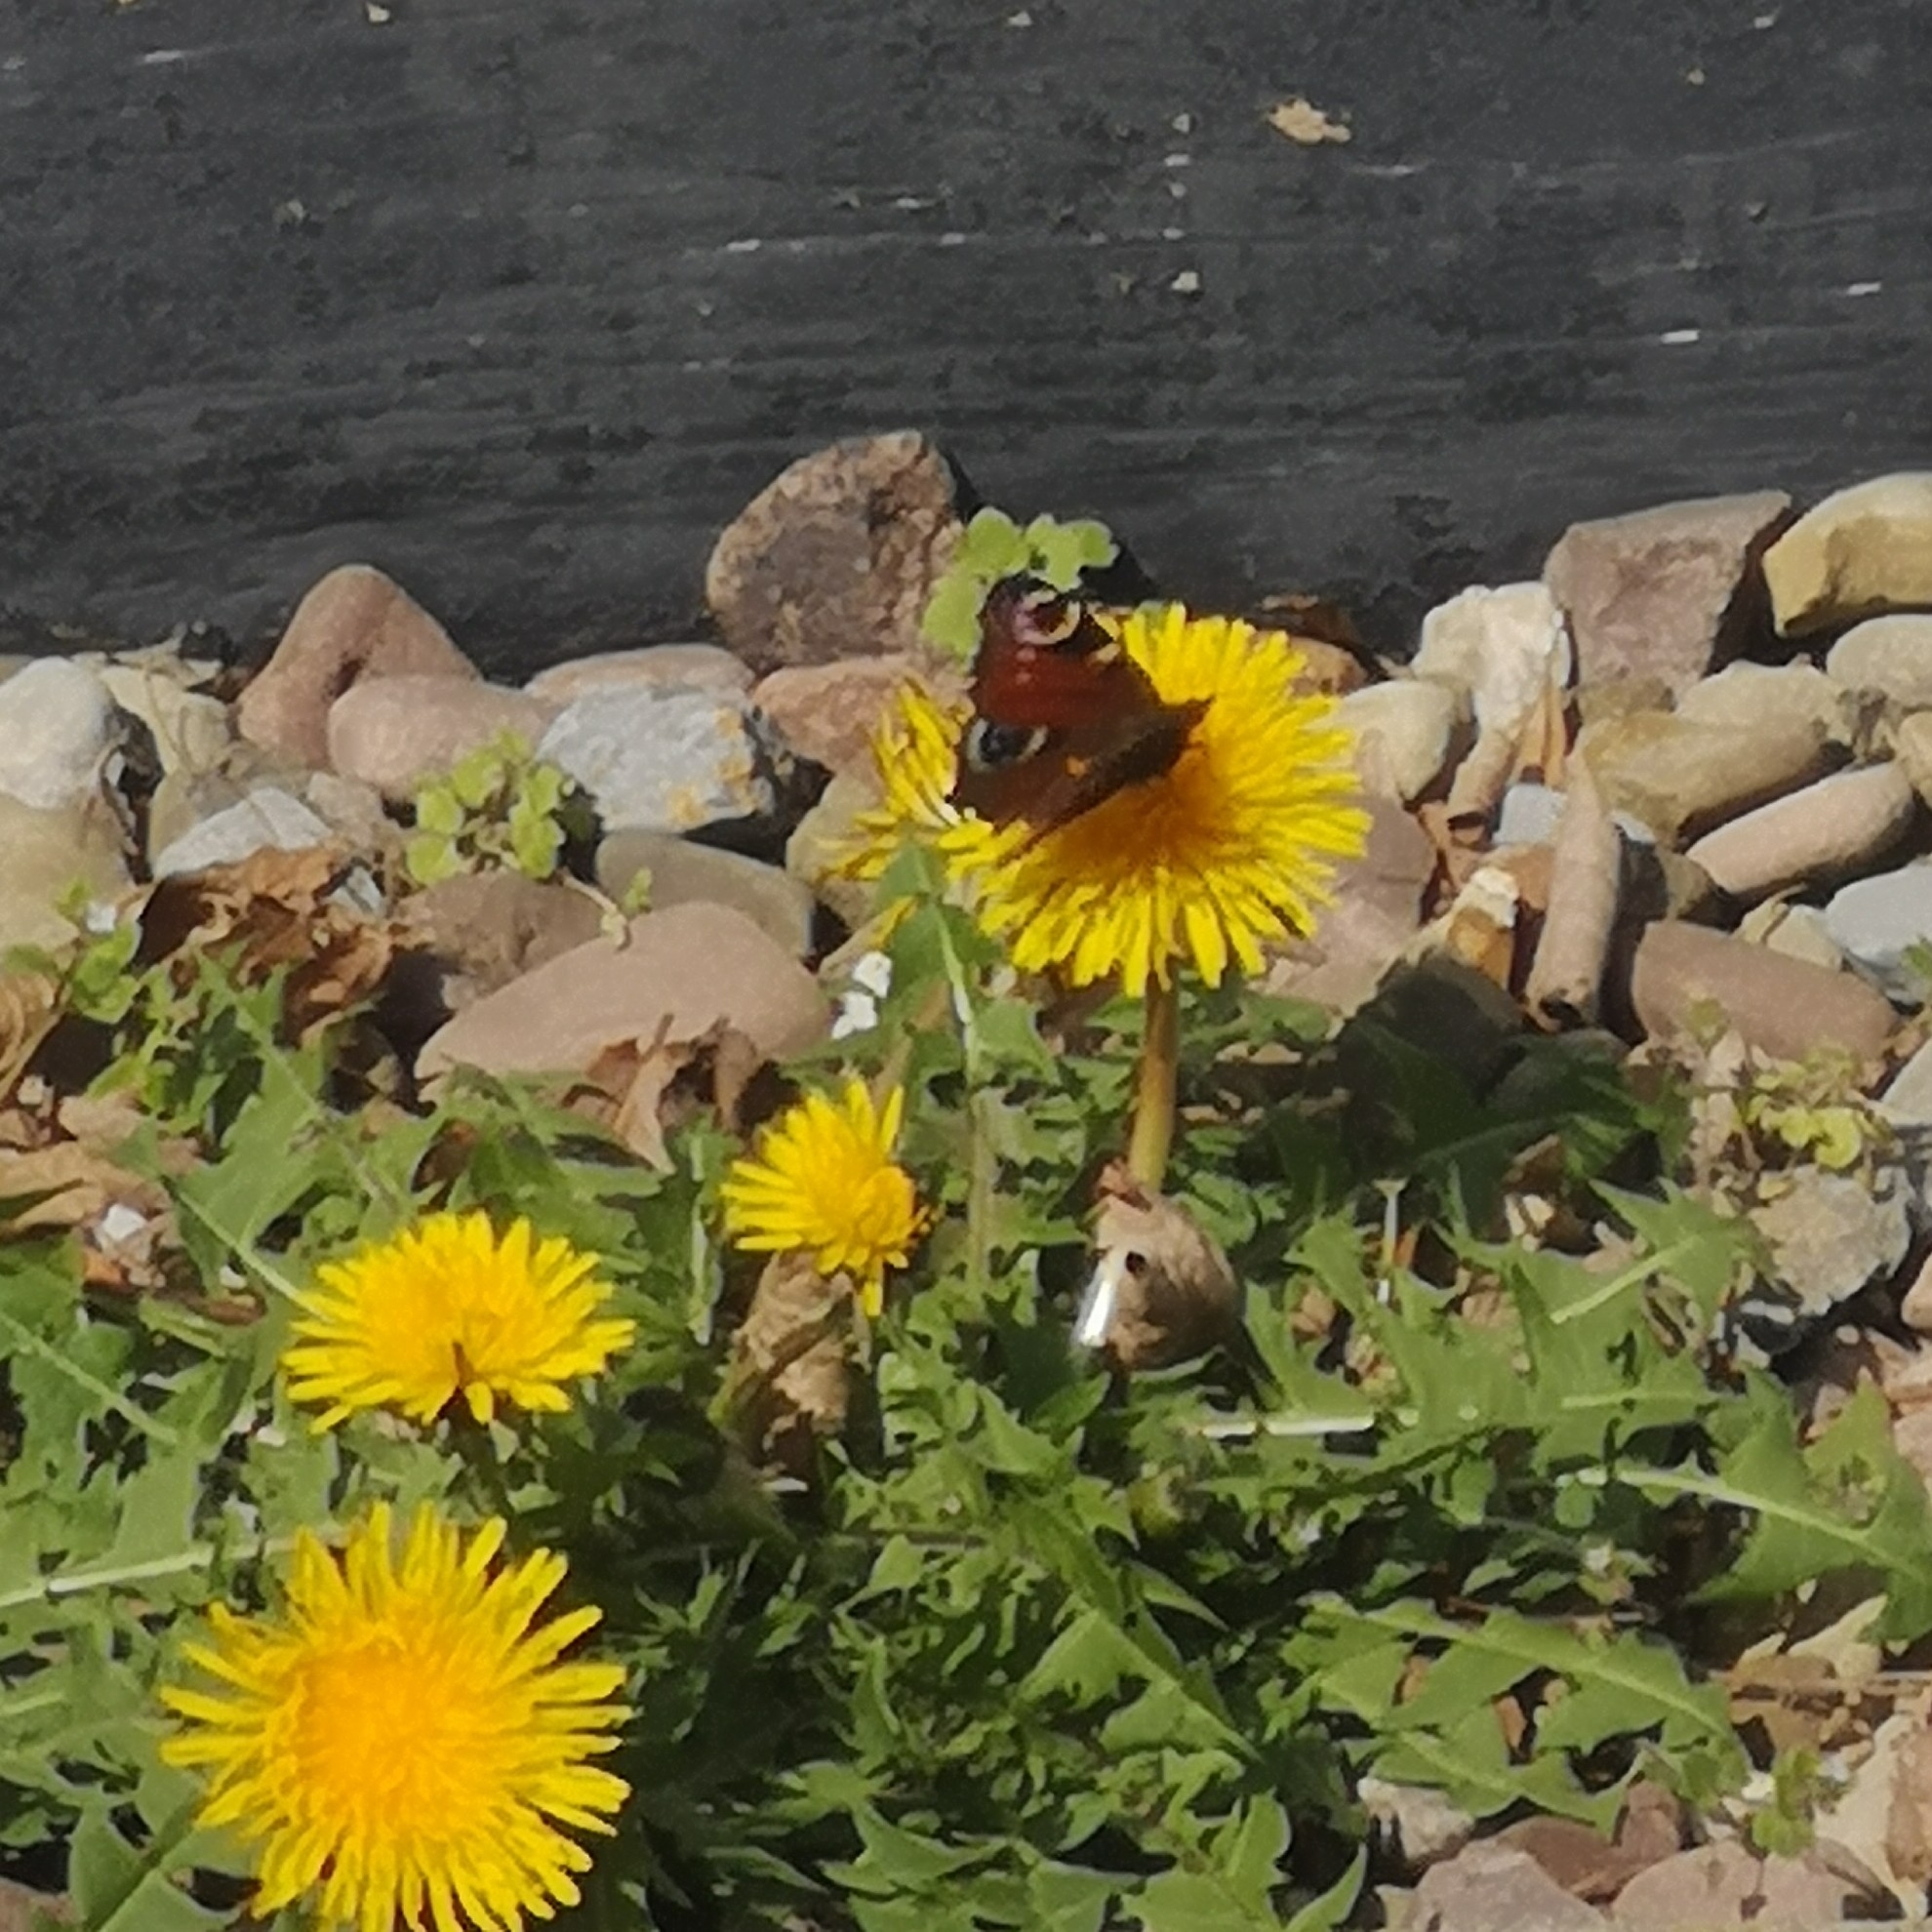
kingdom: Animalia
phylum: Arthropoda
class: Insecta
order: Lepidoptera
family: Nymphalidae
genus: Aglais
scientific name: Aglais io
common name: Peacock
